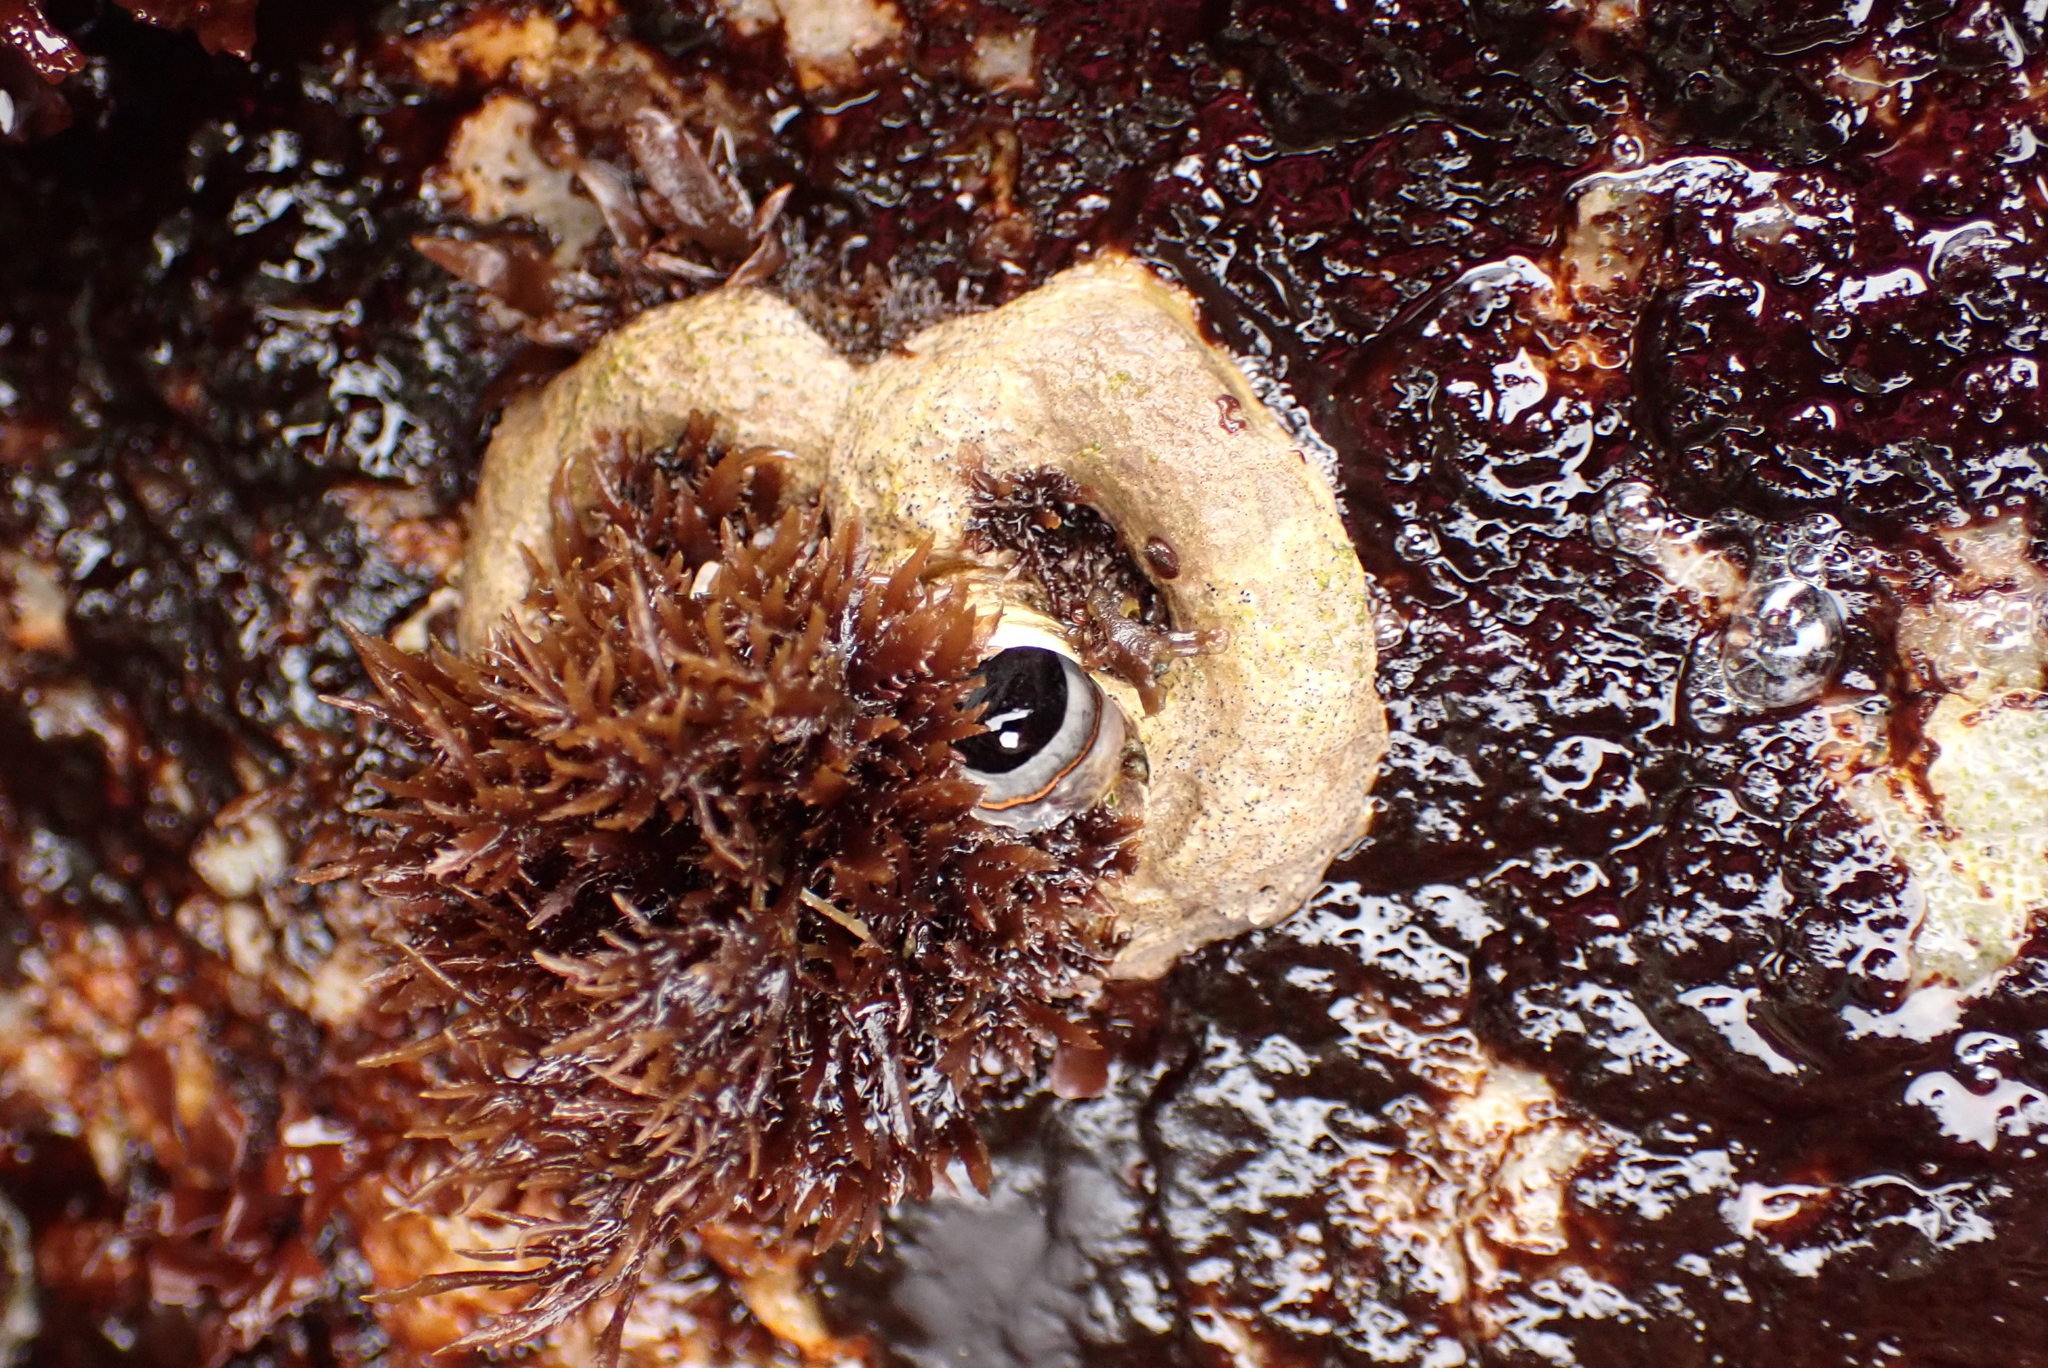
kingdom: Animalia
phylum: Mollusca
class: Gastropoda
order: Littorinimorpha
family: Vermetidae
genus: Thylacodes
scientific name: Thylacodes squamigerus
